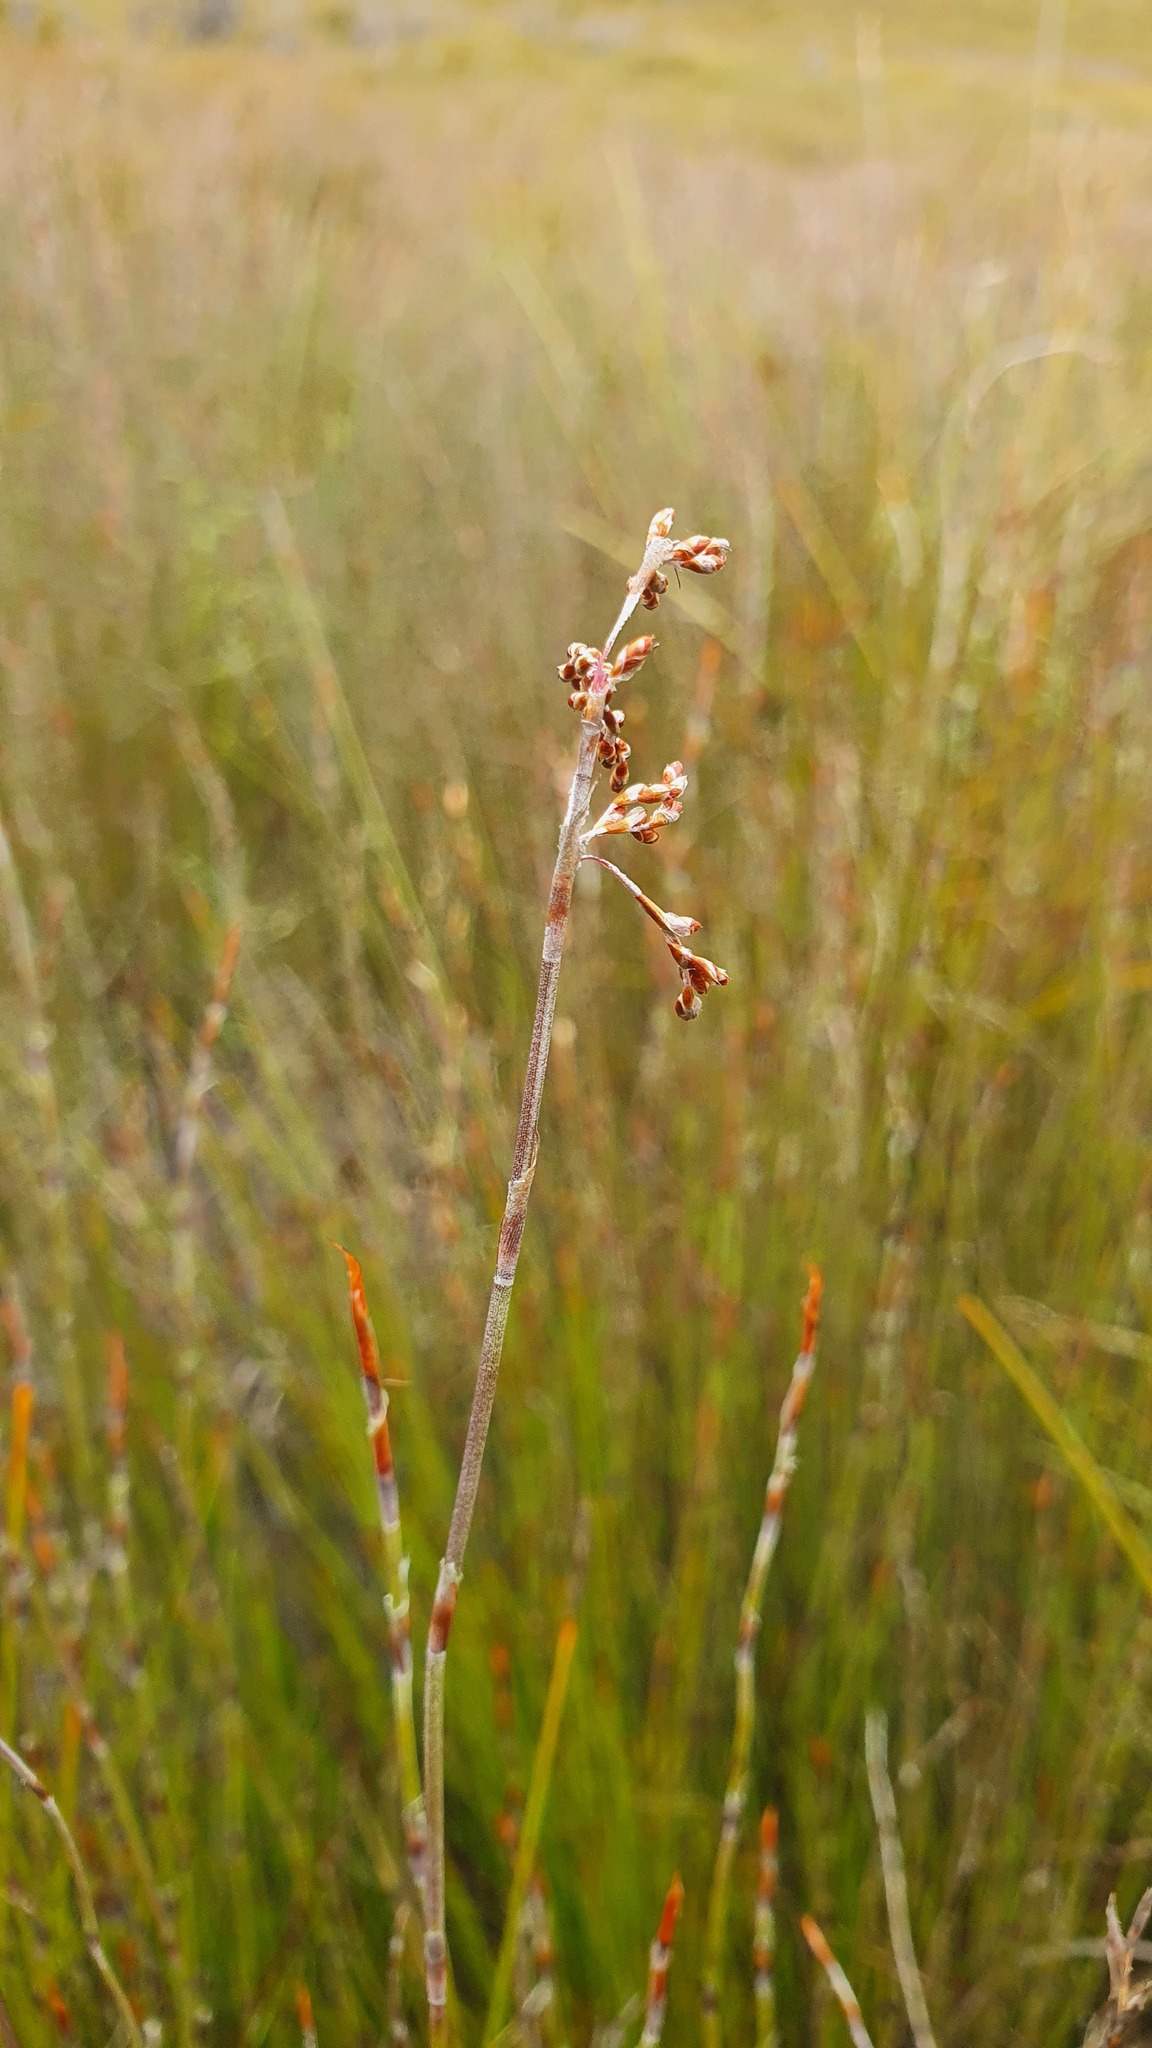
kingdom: Plantae
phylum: Tracheophyta
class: Liliopsida
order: Poales
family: Restionaceae
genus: Leptocarpus
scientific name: Leptocarpus tenax
